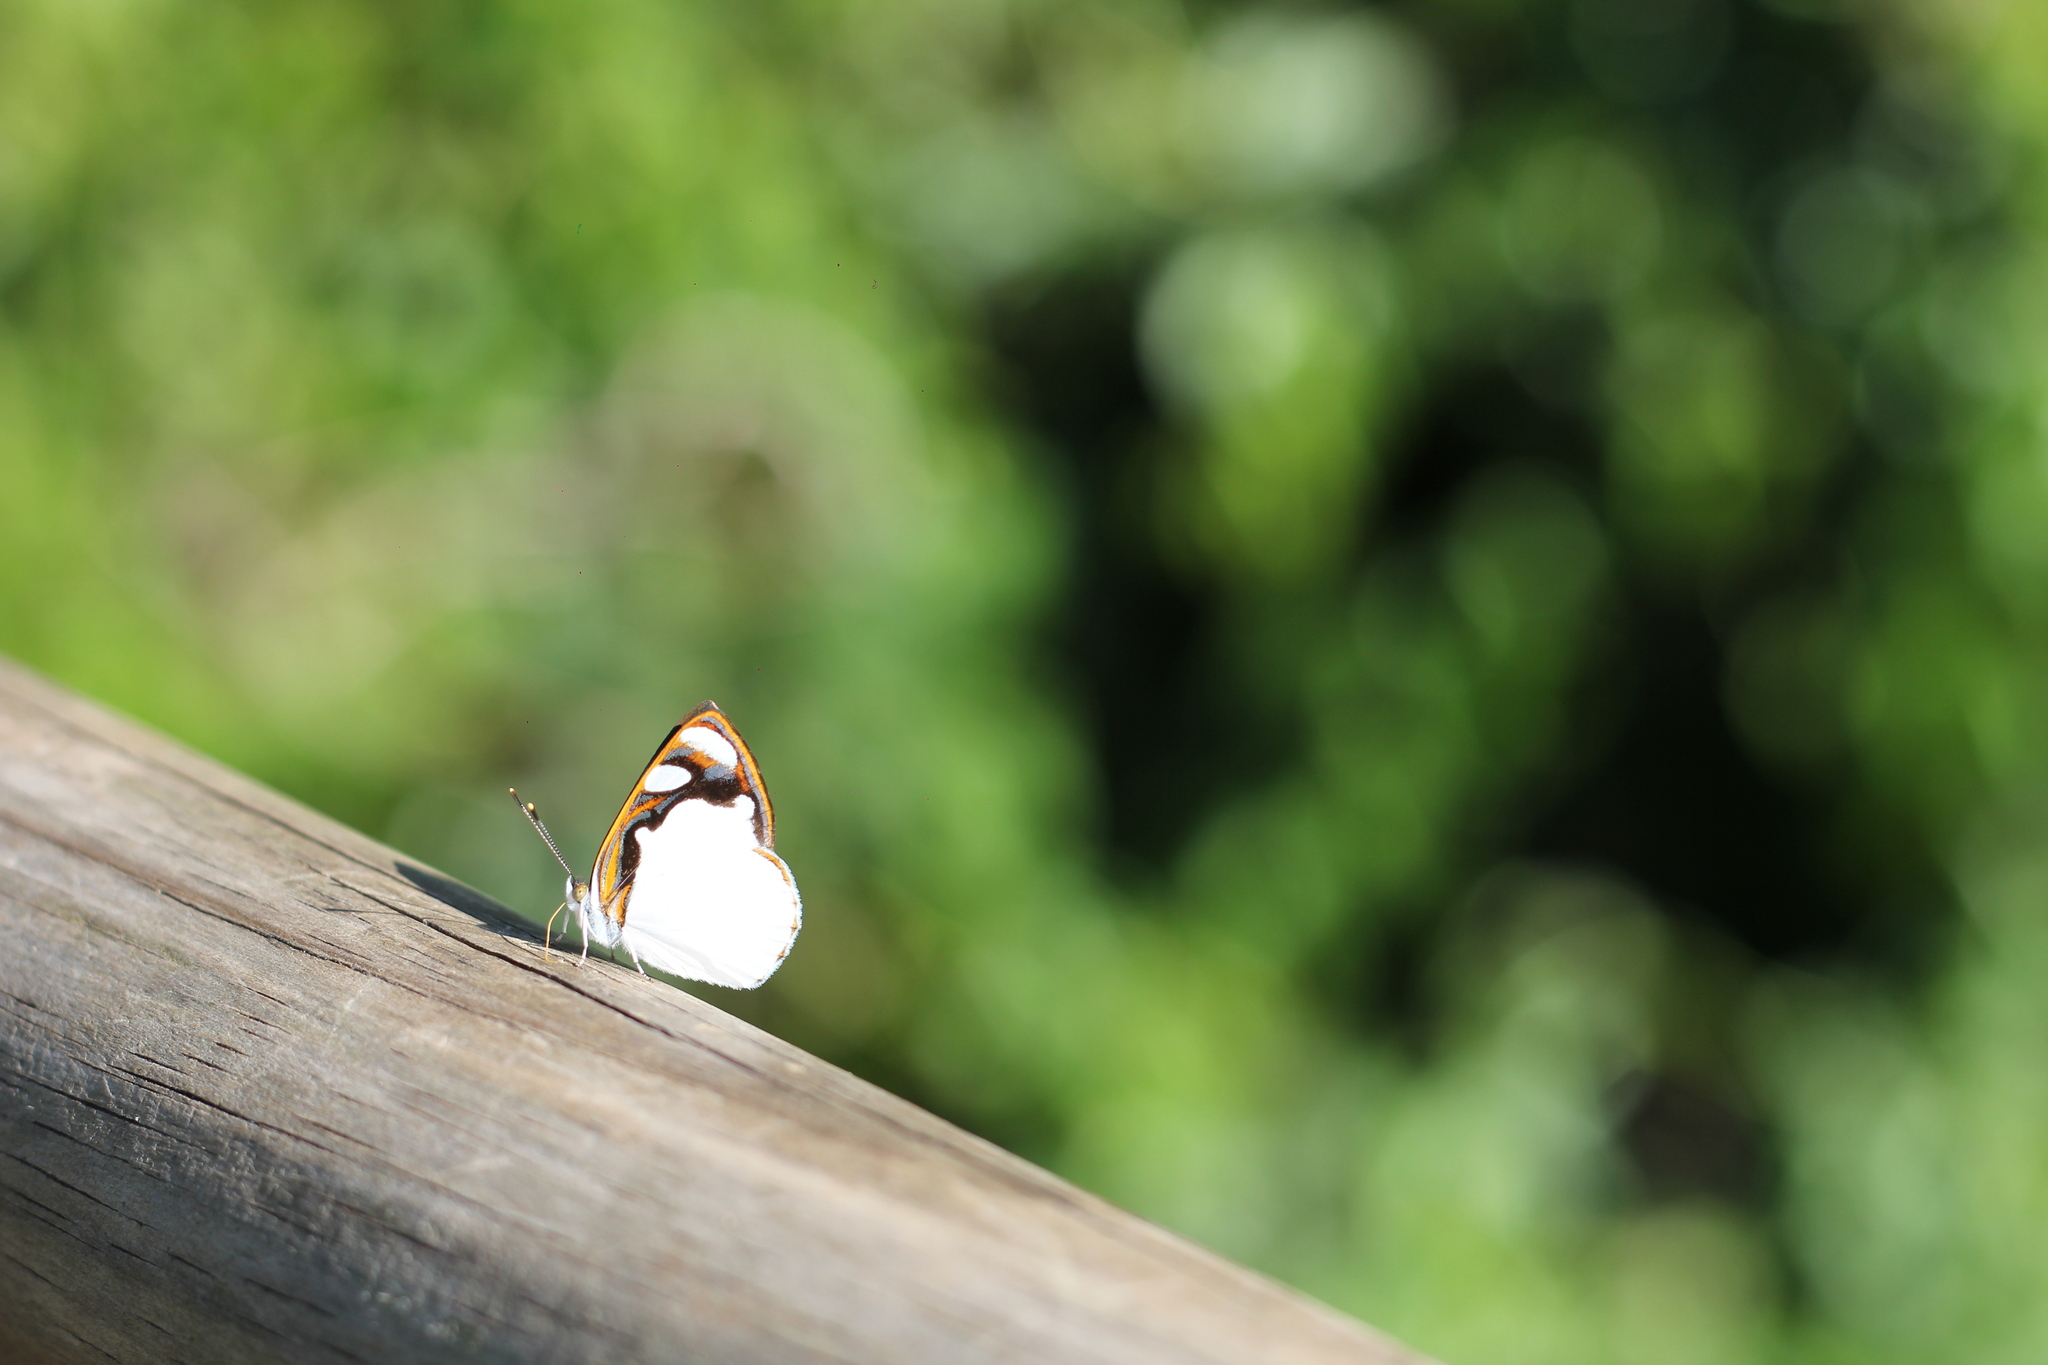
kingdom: Animalia
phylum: Arthropoda
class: Insecta
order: Lepidoptera
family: Nymphalidae
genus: Dynamine
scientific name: Dynamine coenus
